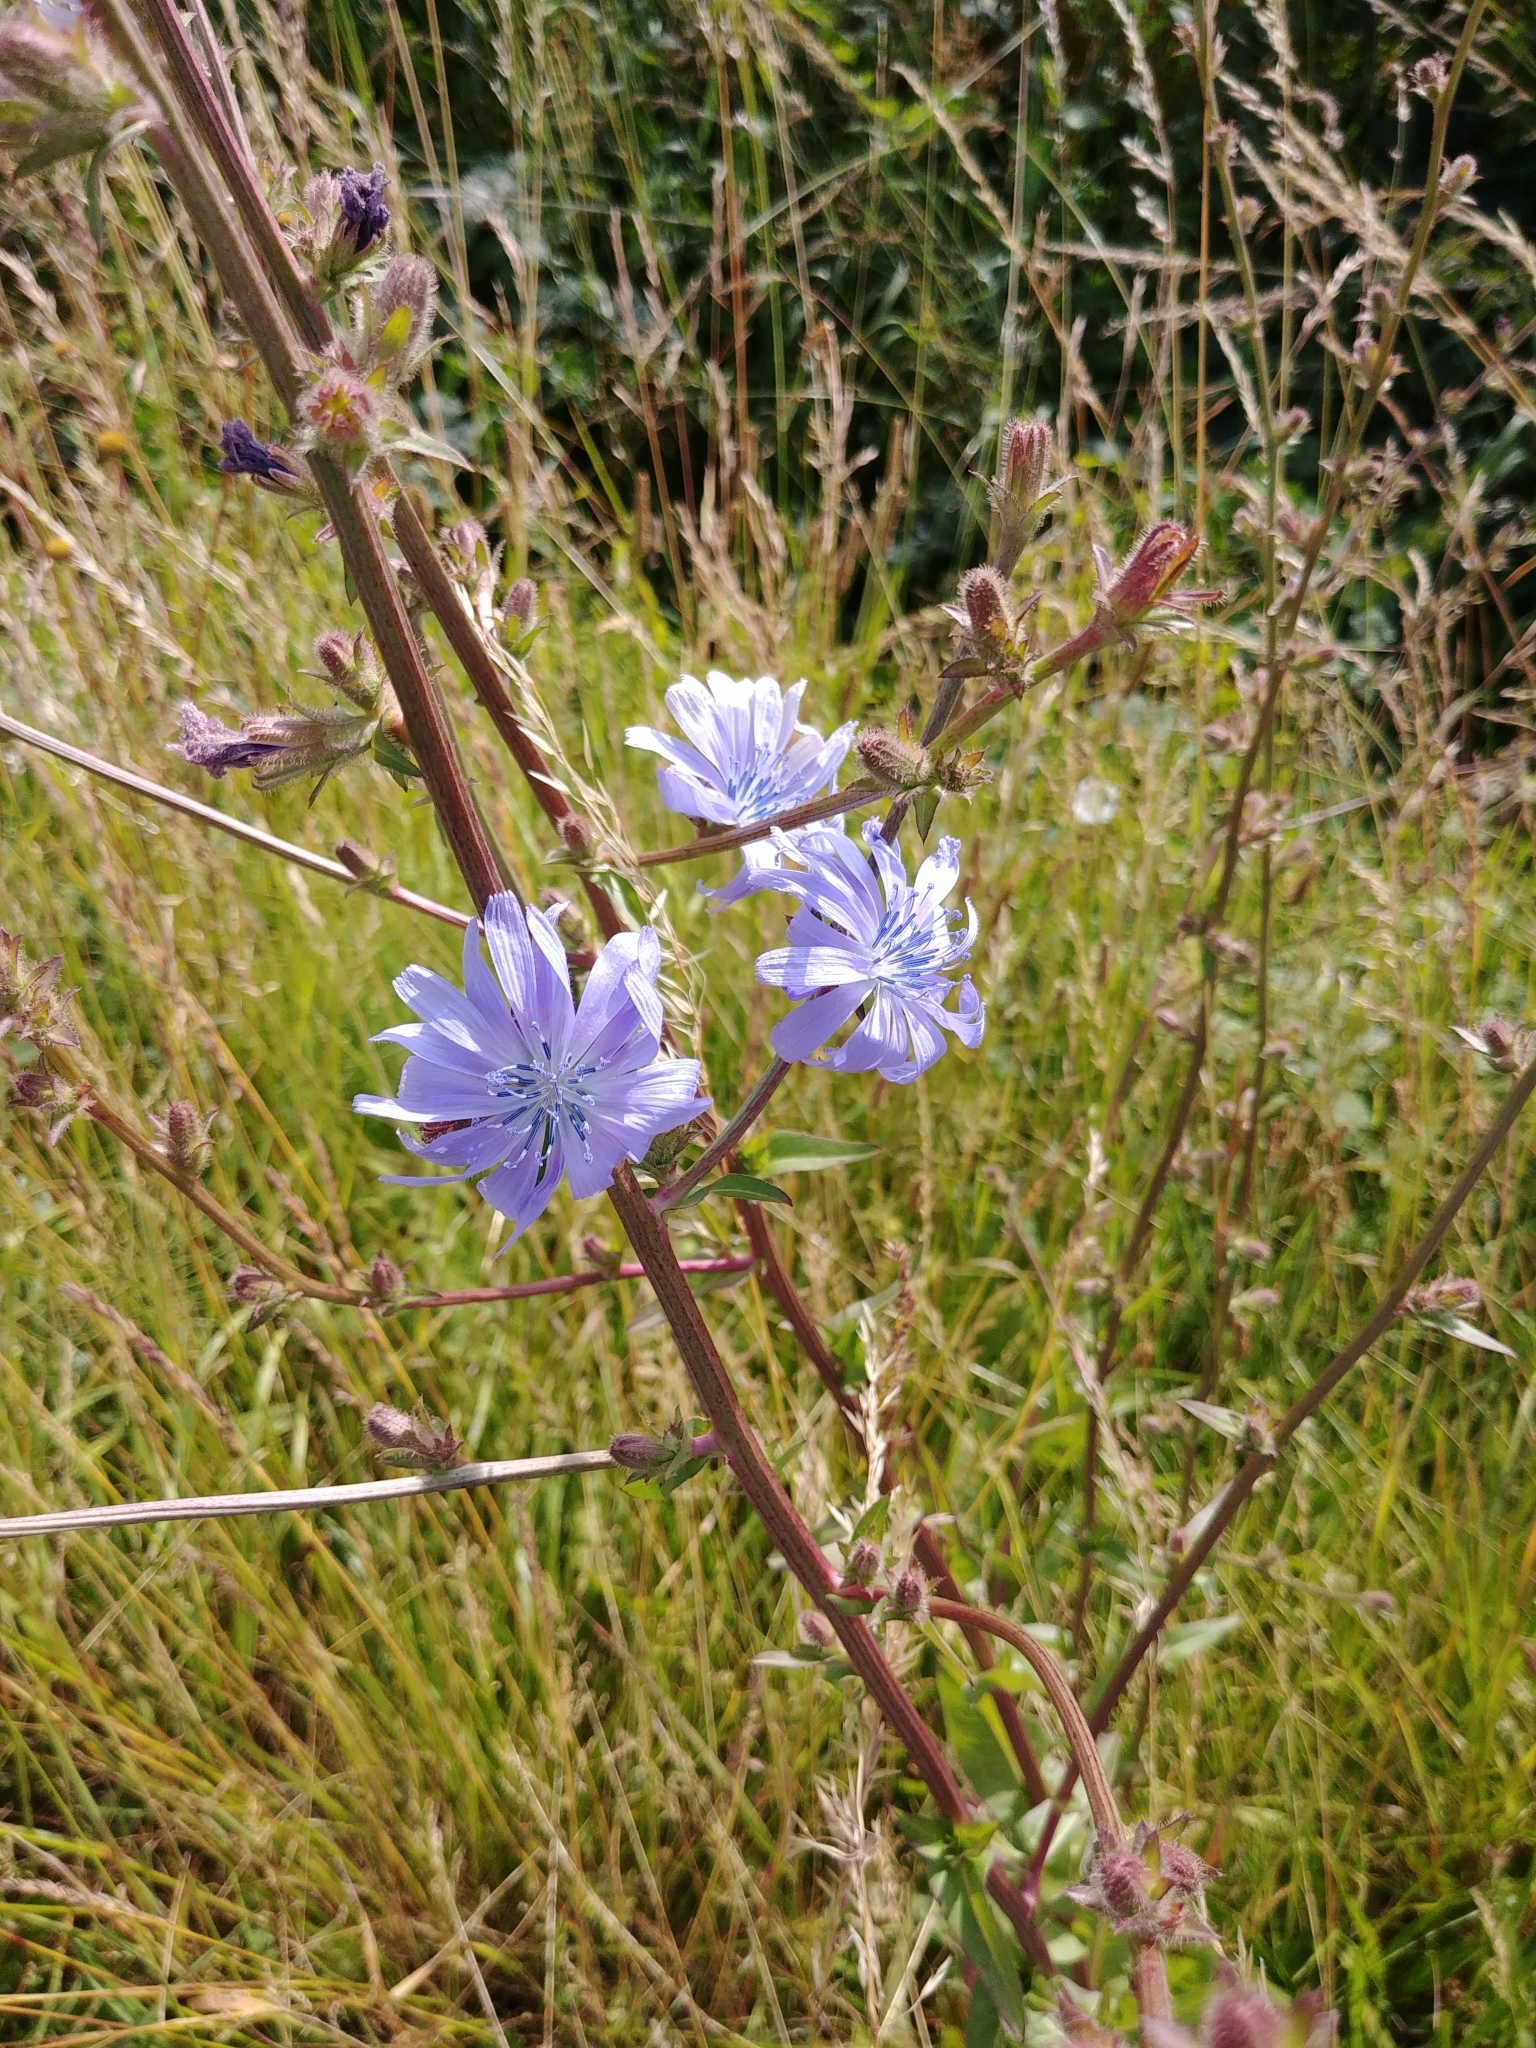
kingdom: Plantae
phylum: Tracheophyta
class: Magnoliopsida
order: Asterales
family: Asteraceae
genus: Cichorium
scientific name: Cichorium intybus
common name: Chicory
